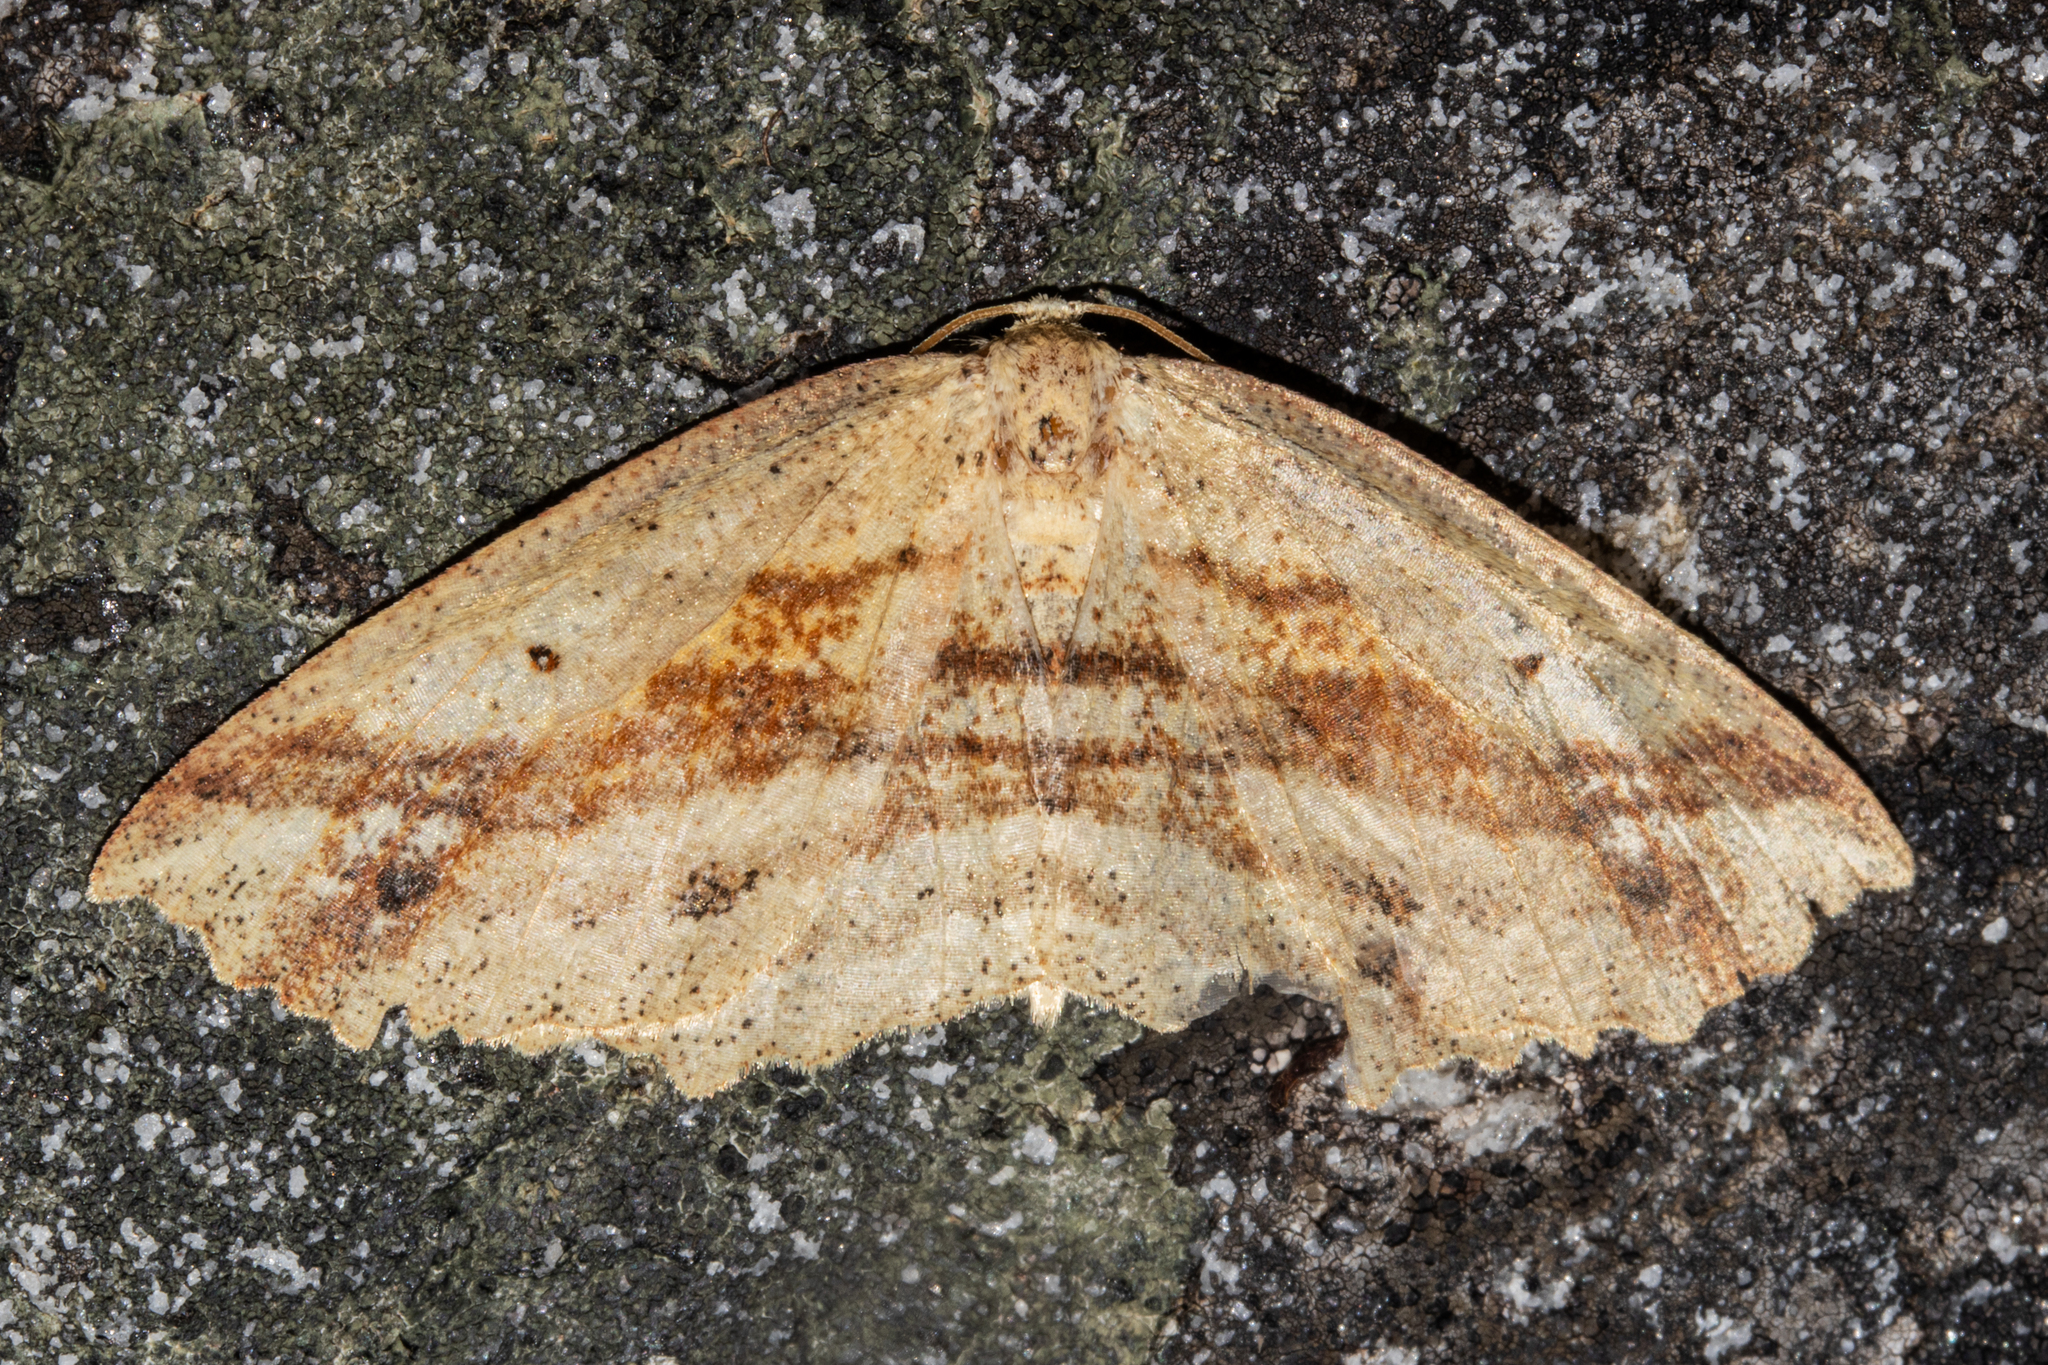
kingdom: Animalia
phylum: Arthropoda
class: Insecta
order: Lepidoptera
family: Geometridae
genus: Xyridacma
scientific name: Xyridacma veronicae
